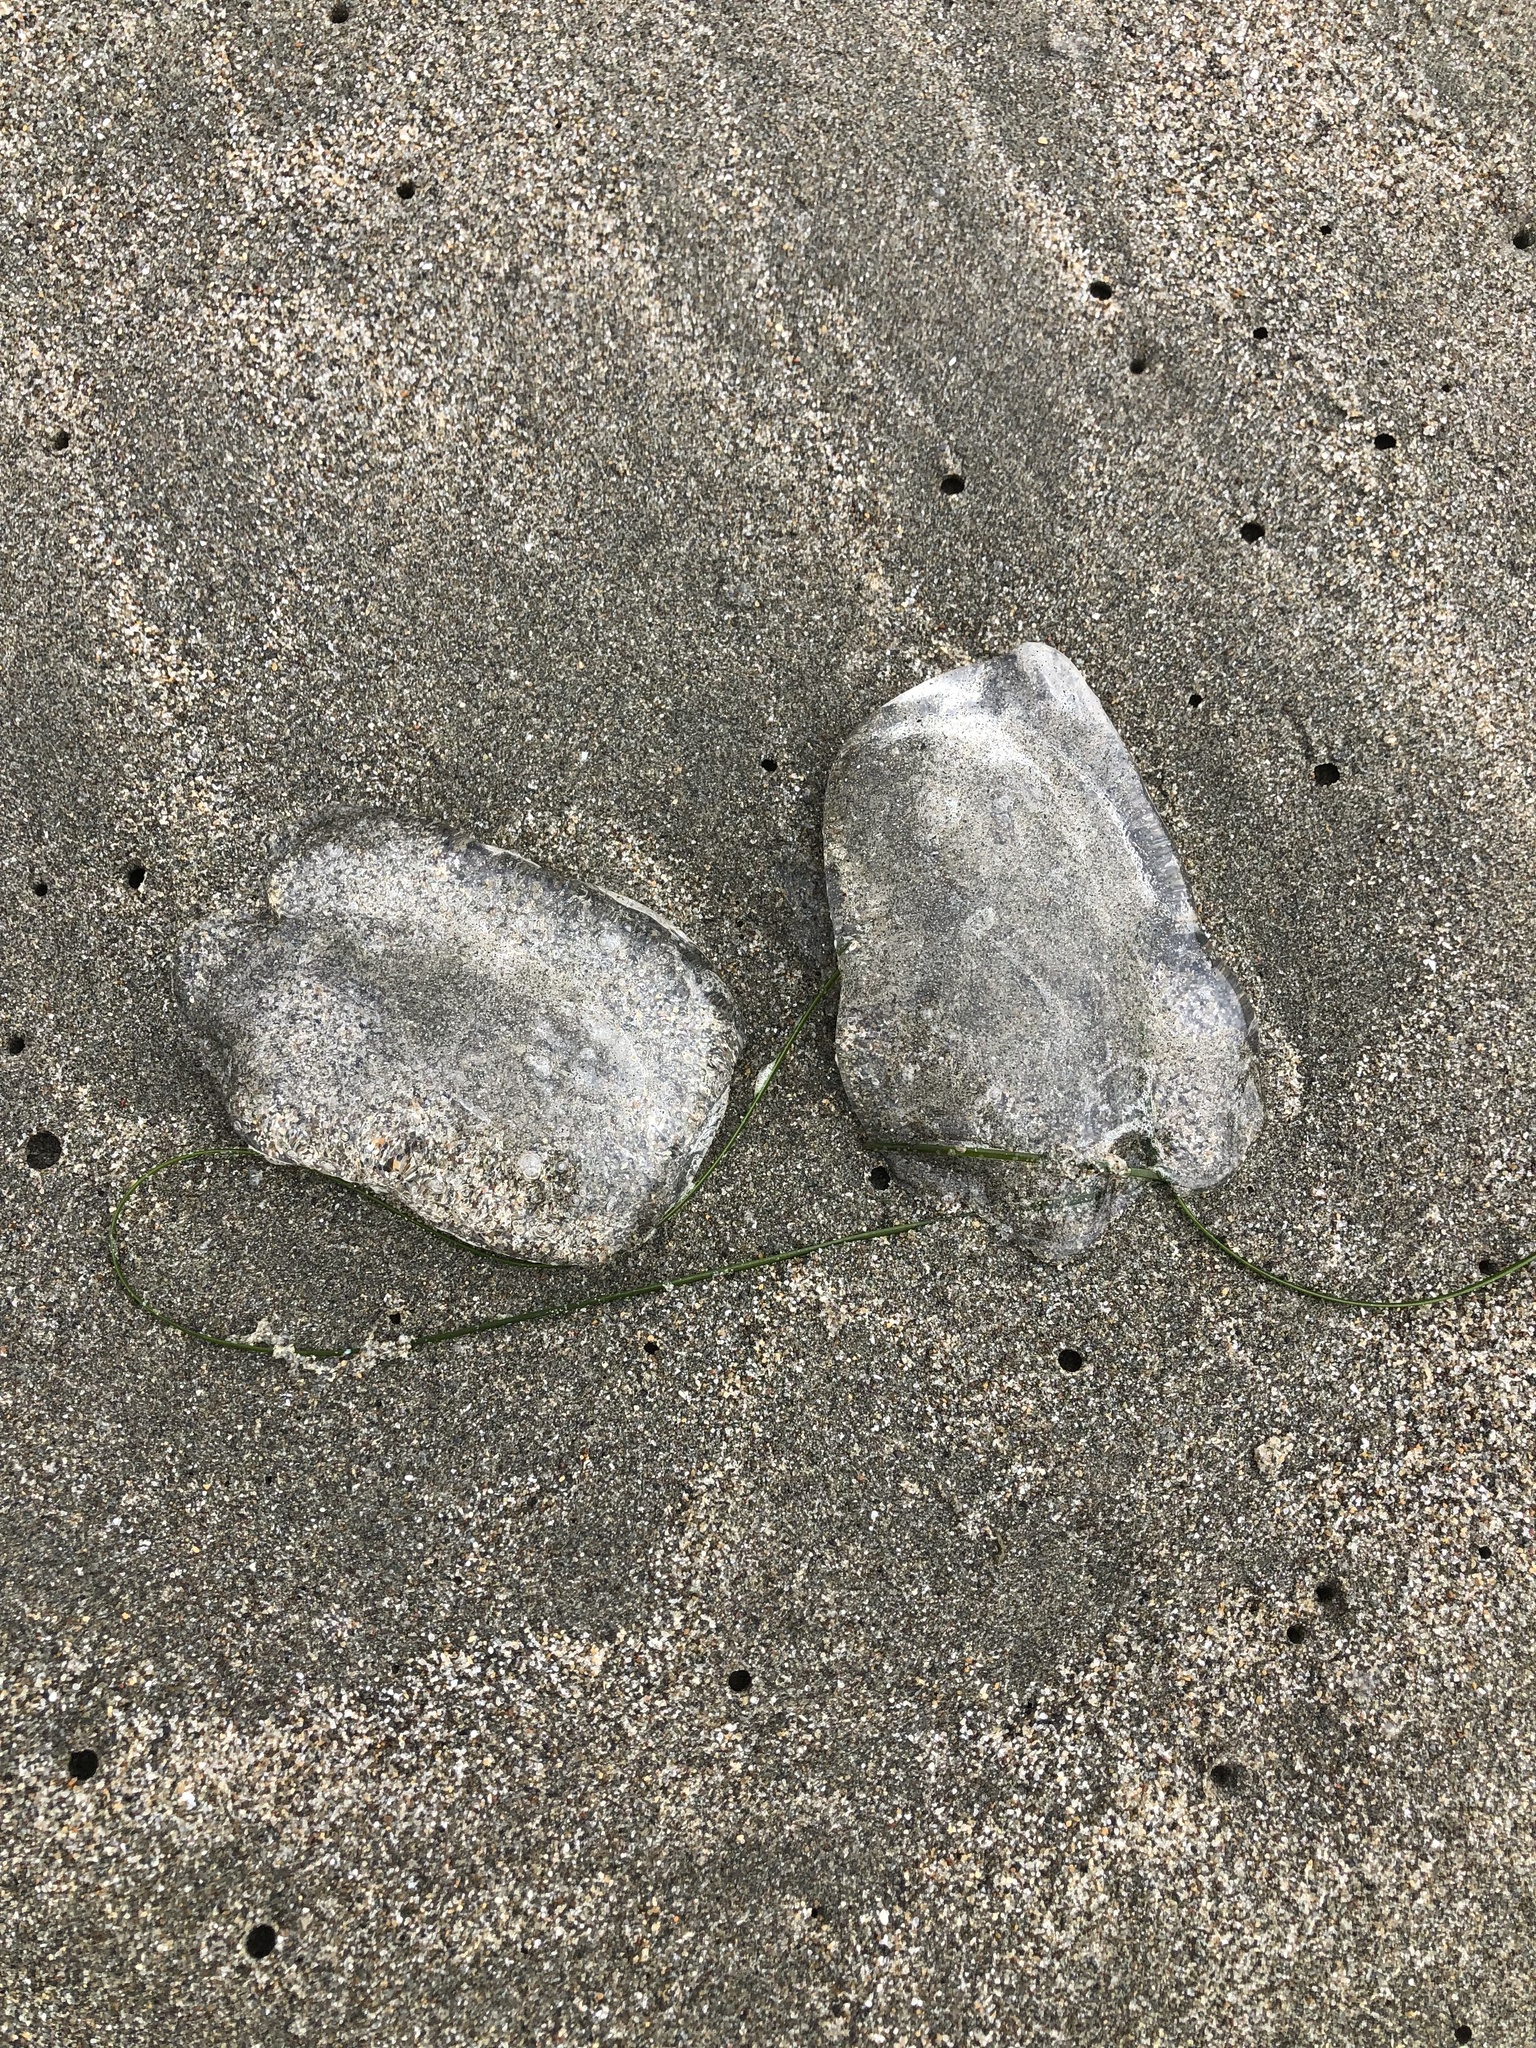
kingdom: Animalia
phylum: Cnidaria
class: Scyphozoa
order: Semaeostomeae
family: Ulmaridae
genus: Aurelia
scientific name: Aurelia labiata
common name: Pacific moon jelly
